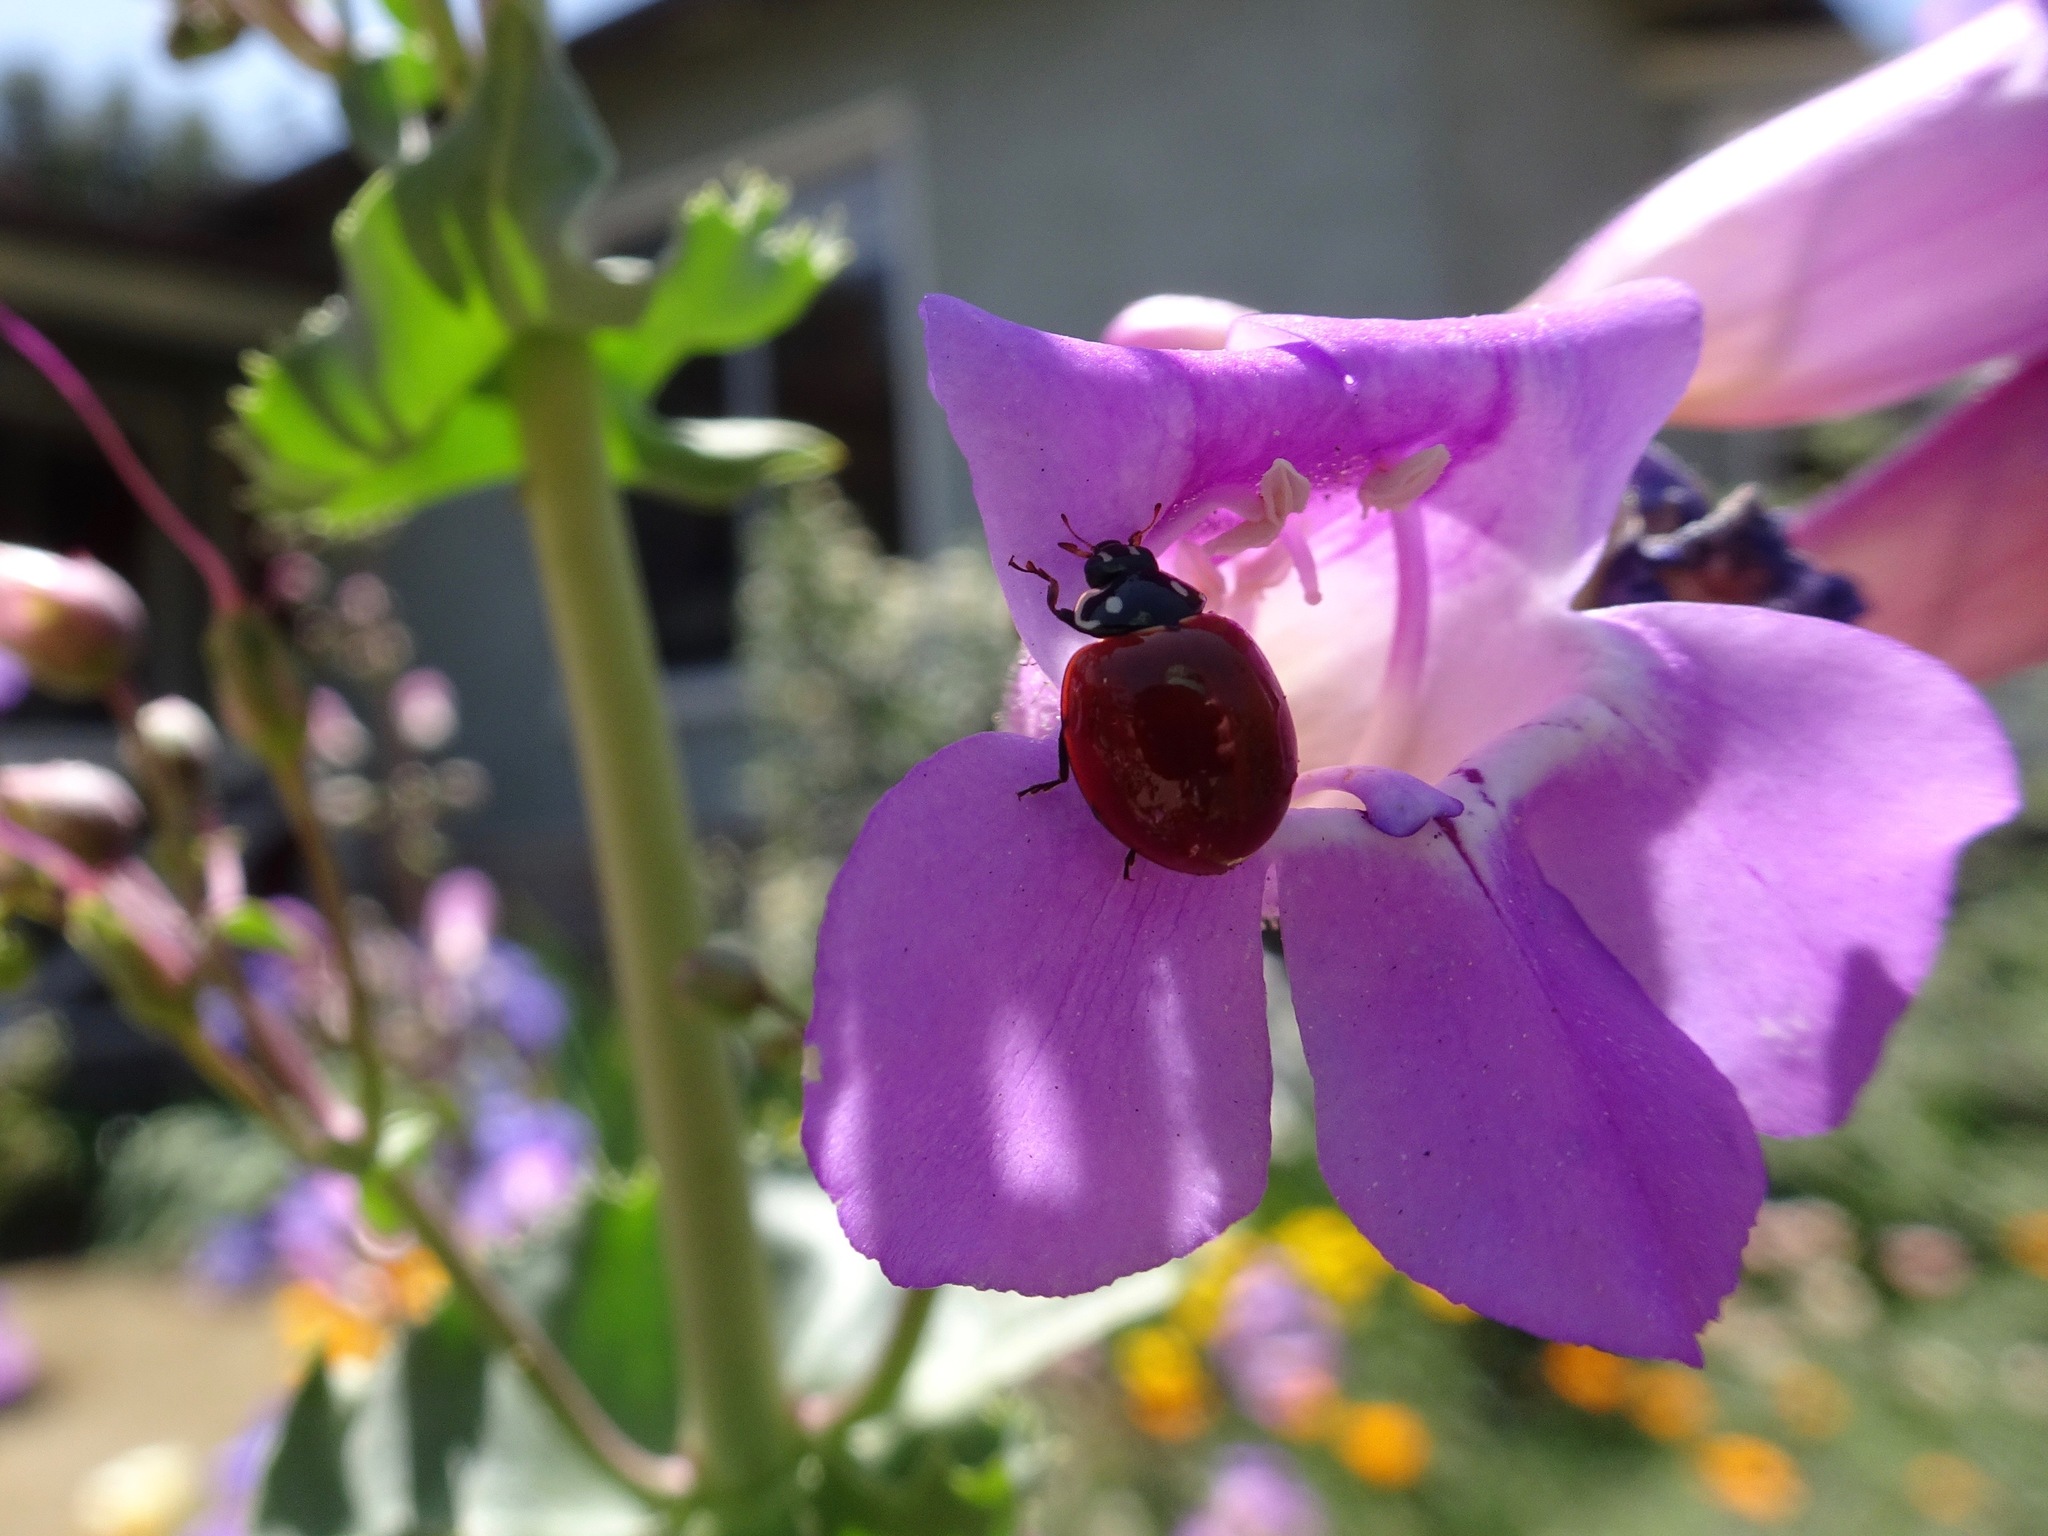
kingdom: Animalia
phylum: Arthropoda
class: Insecta
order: Coleoptera
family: Coccinellidae
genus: Cycloneda
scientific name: Cycloneda sanguinea
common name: Ladybird beetle
